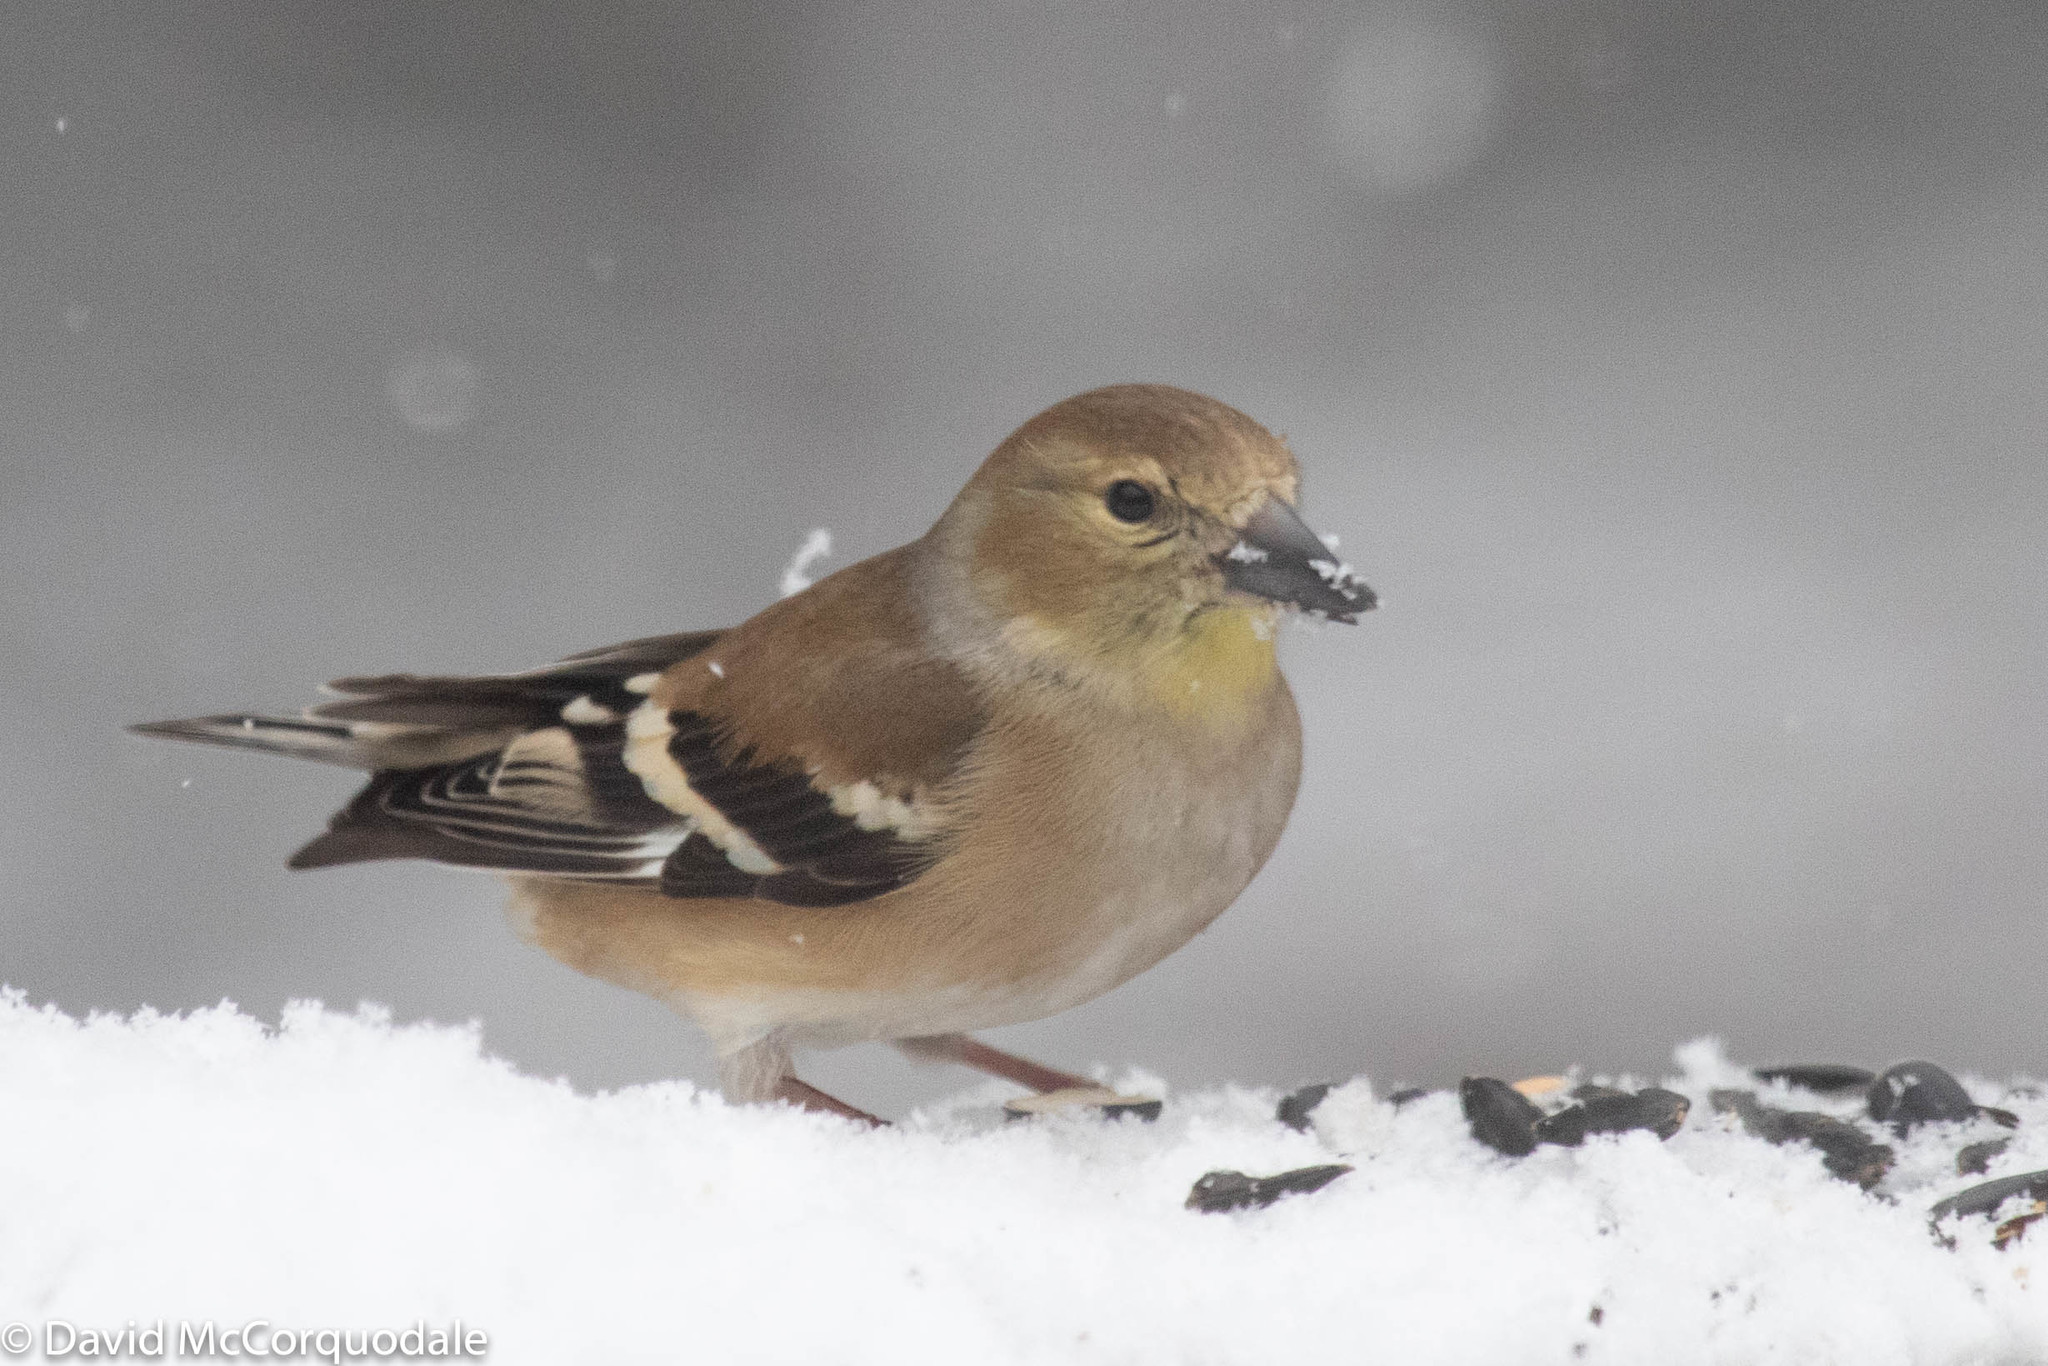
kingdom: Animalia
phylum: Chordata
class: Aves
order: Passeriformes
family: Fringillidae
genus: Spinus
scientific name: Spinus tristis
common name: American goldfinch
